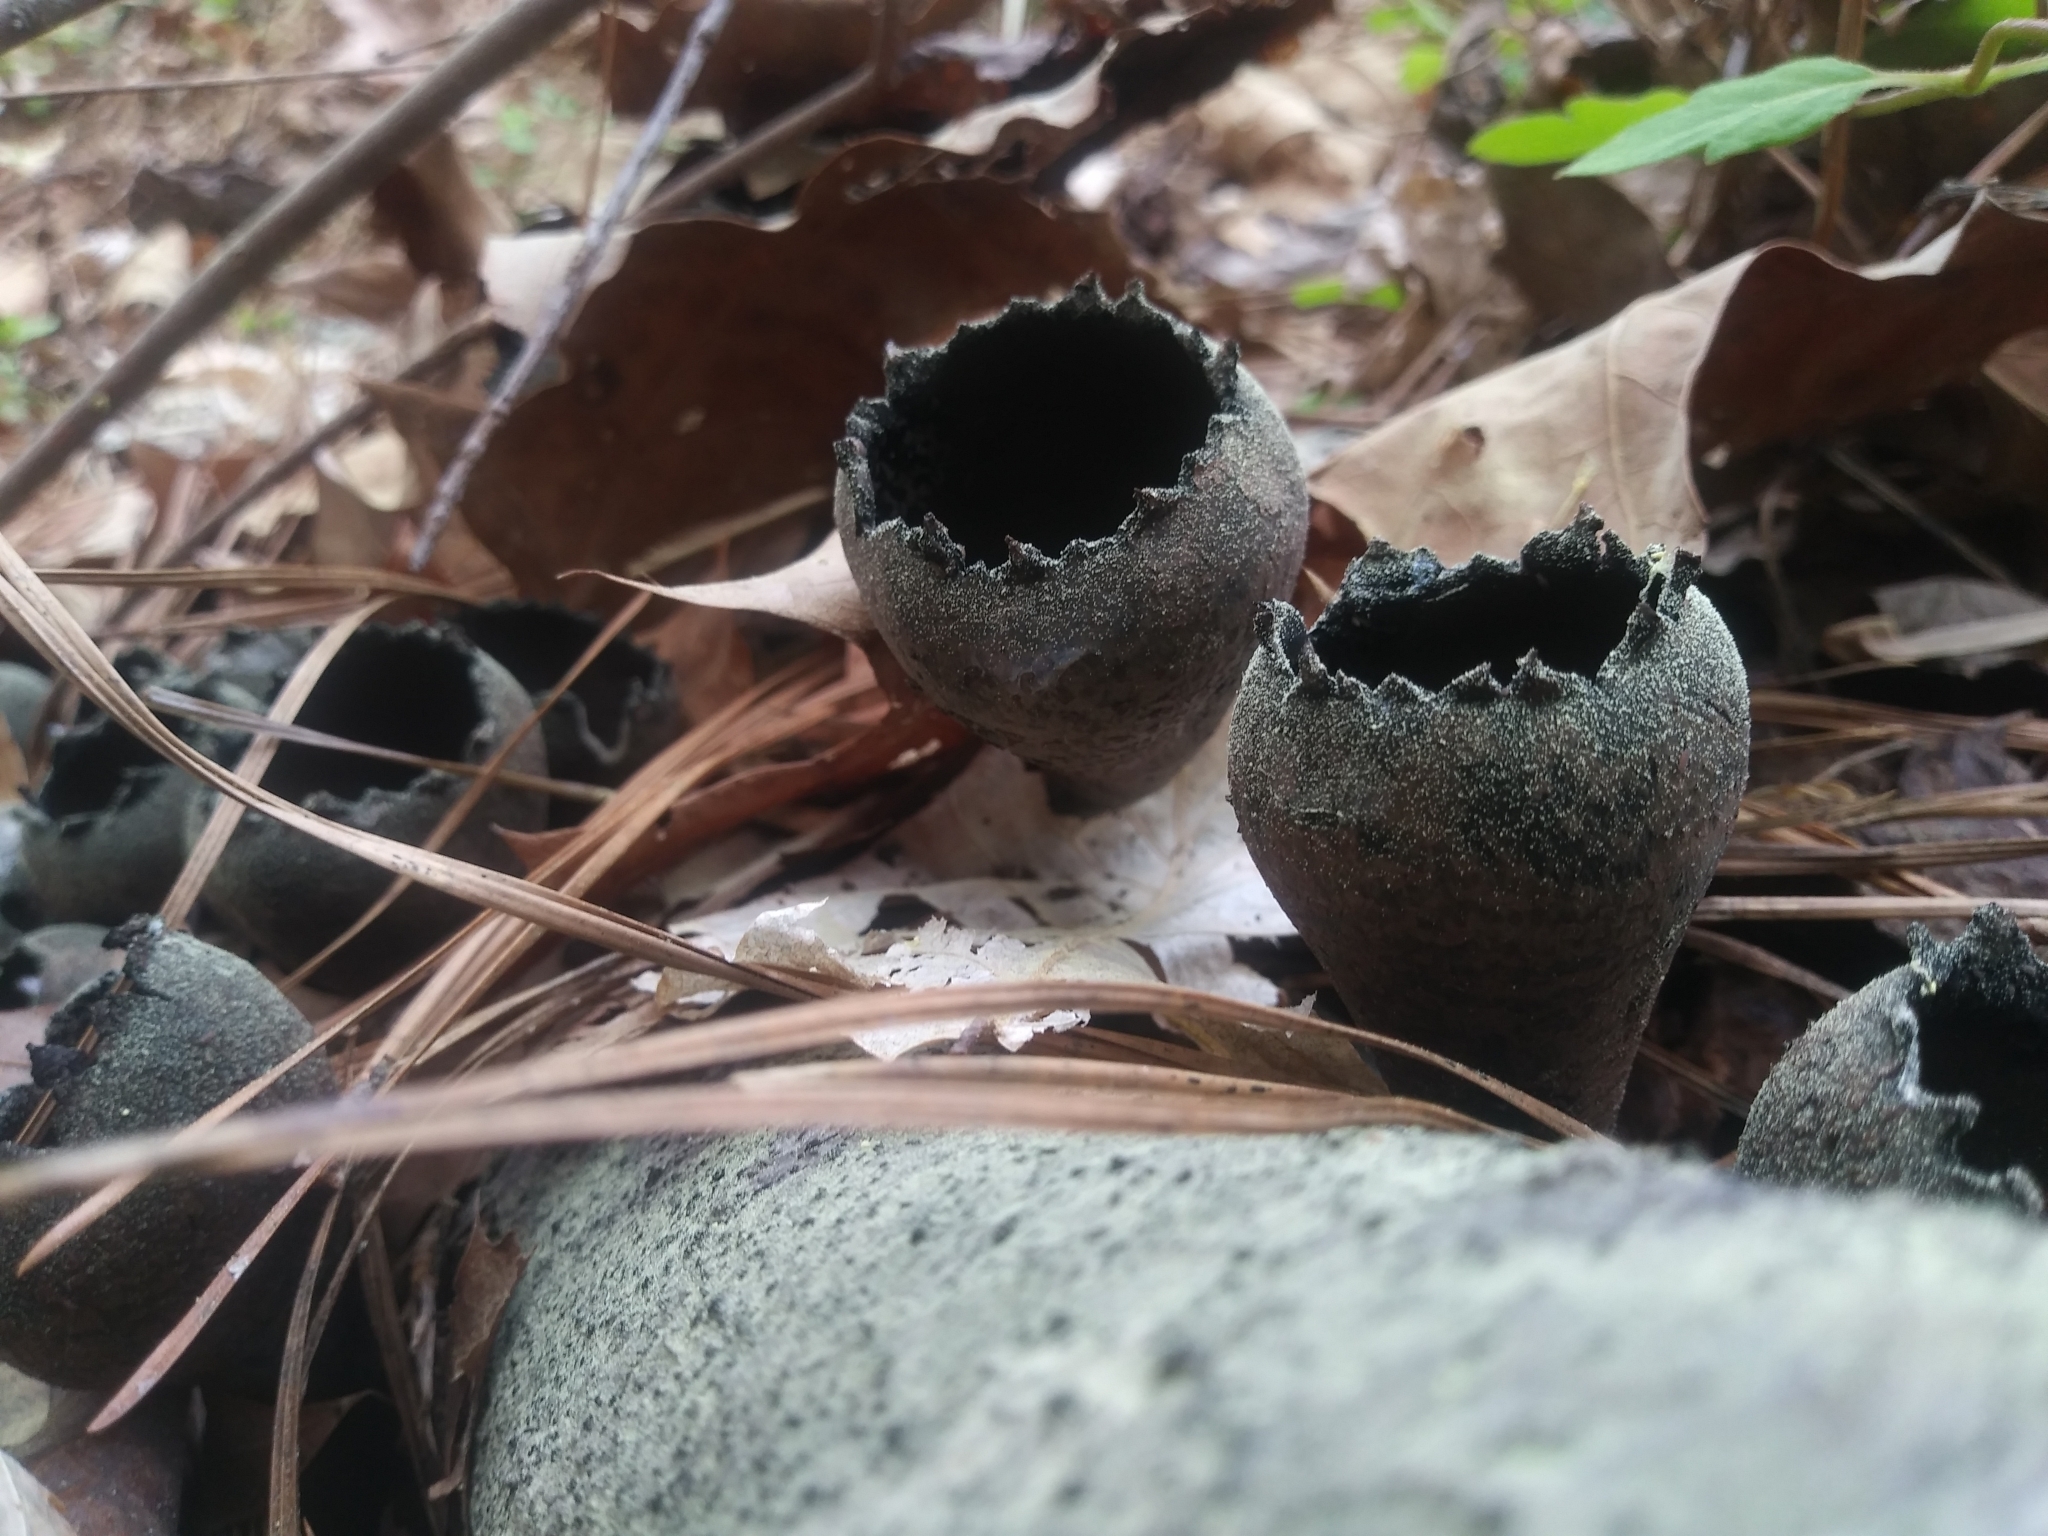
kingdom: Fungi
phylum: Ascomycota
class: Pezizomycetes
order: Pezizales
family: Sarcosomataceae
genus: Urnula
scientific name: Urnula craterium
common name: Devil's urn
